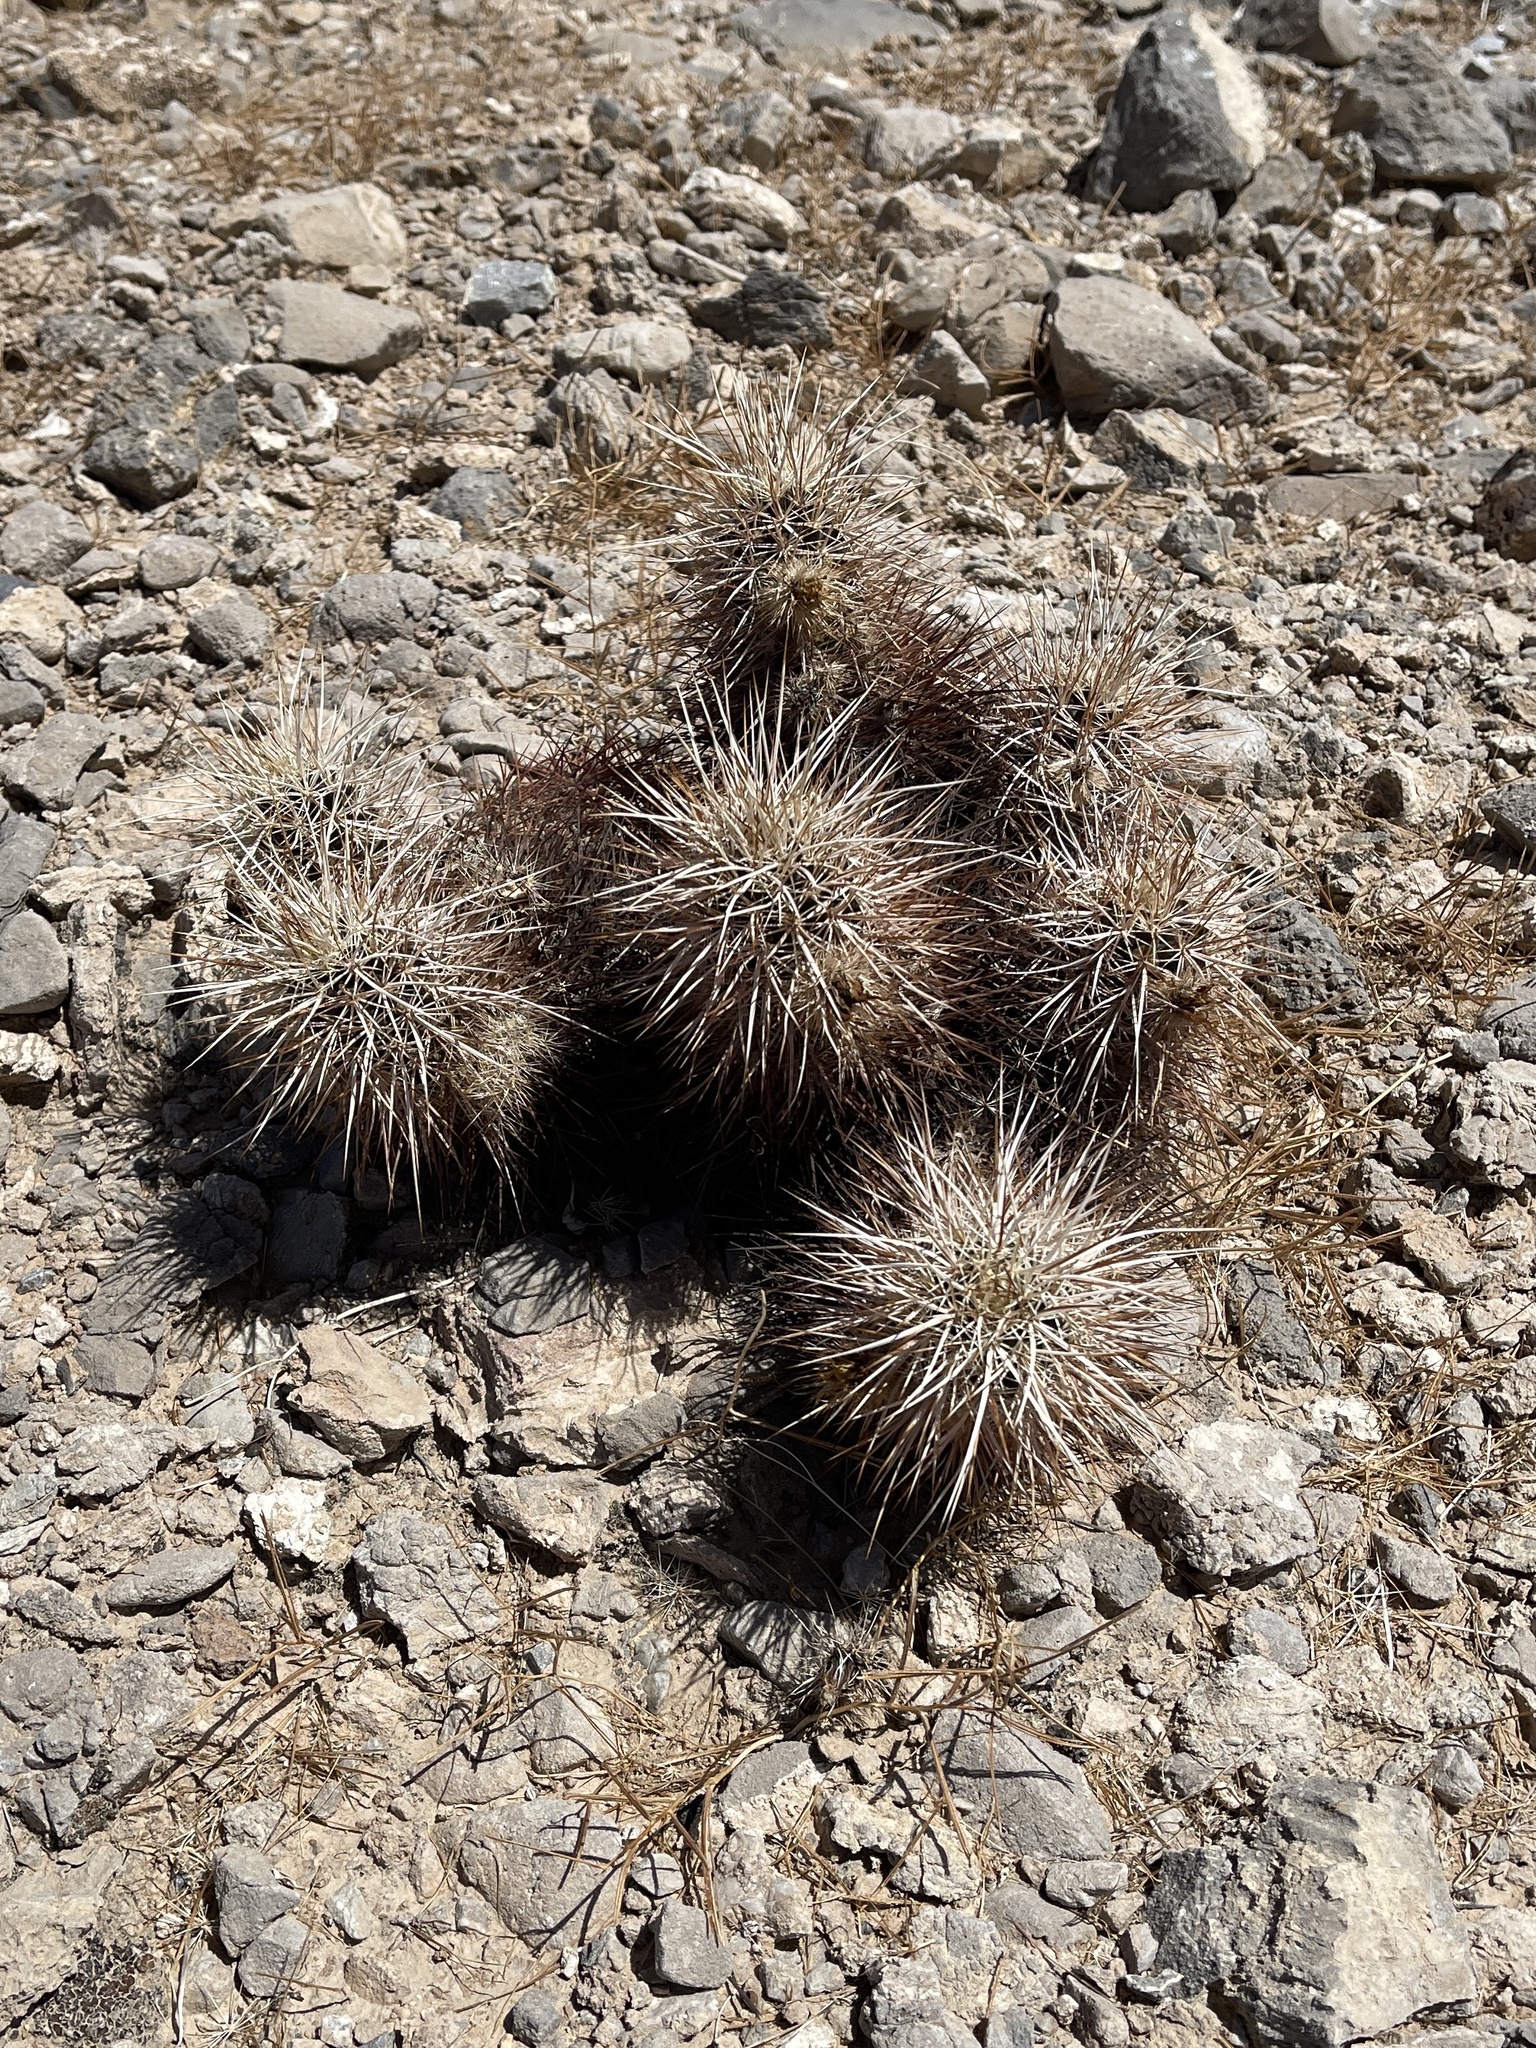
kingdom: Plantae
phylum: Tracheophyta
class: Magnoliopsida
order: Caryophyllales
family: Cactaceae
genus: Echinocereus
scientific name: Echinocereus engelmannii
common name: Engelmann's hedgehog cactus
